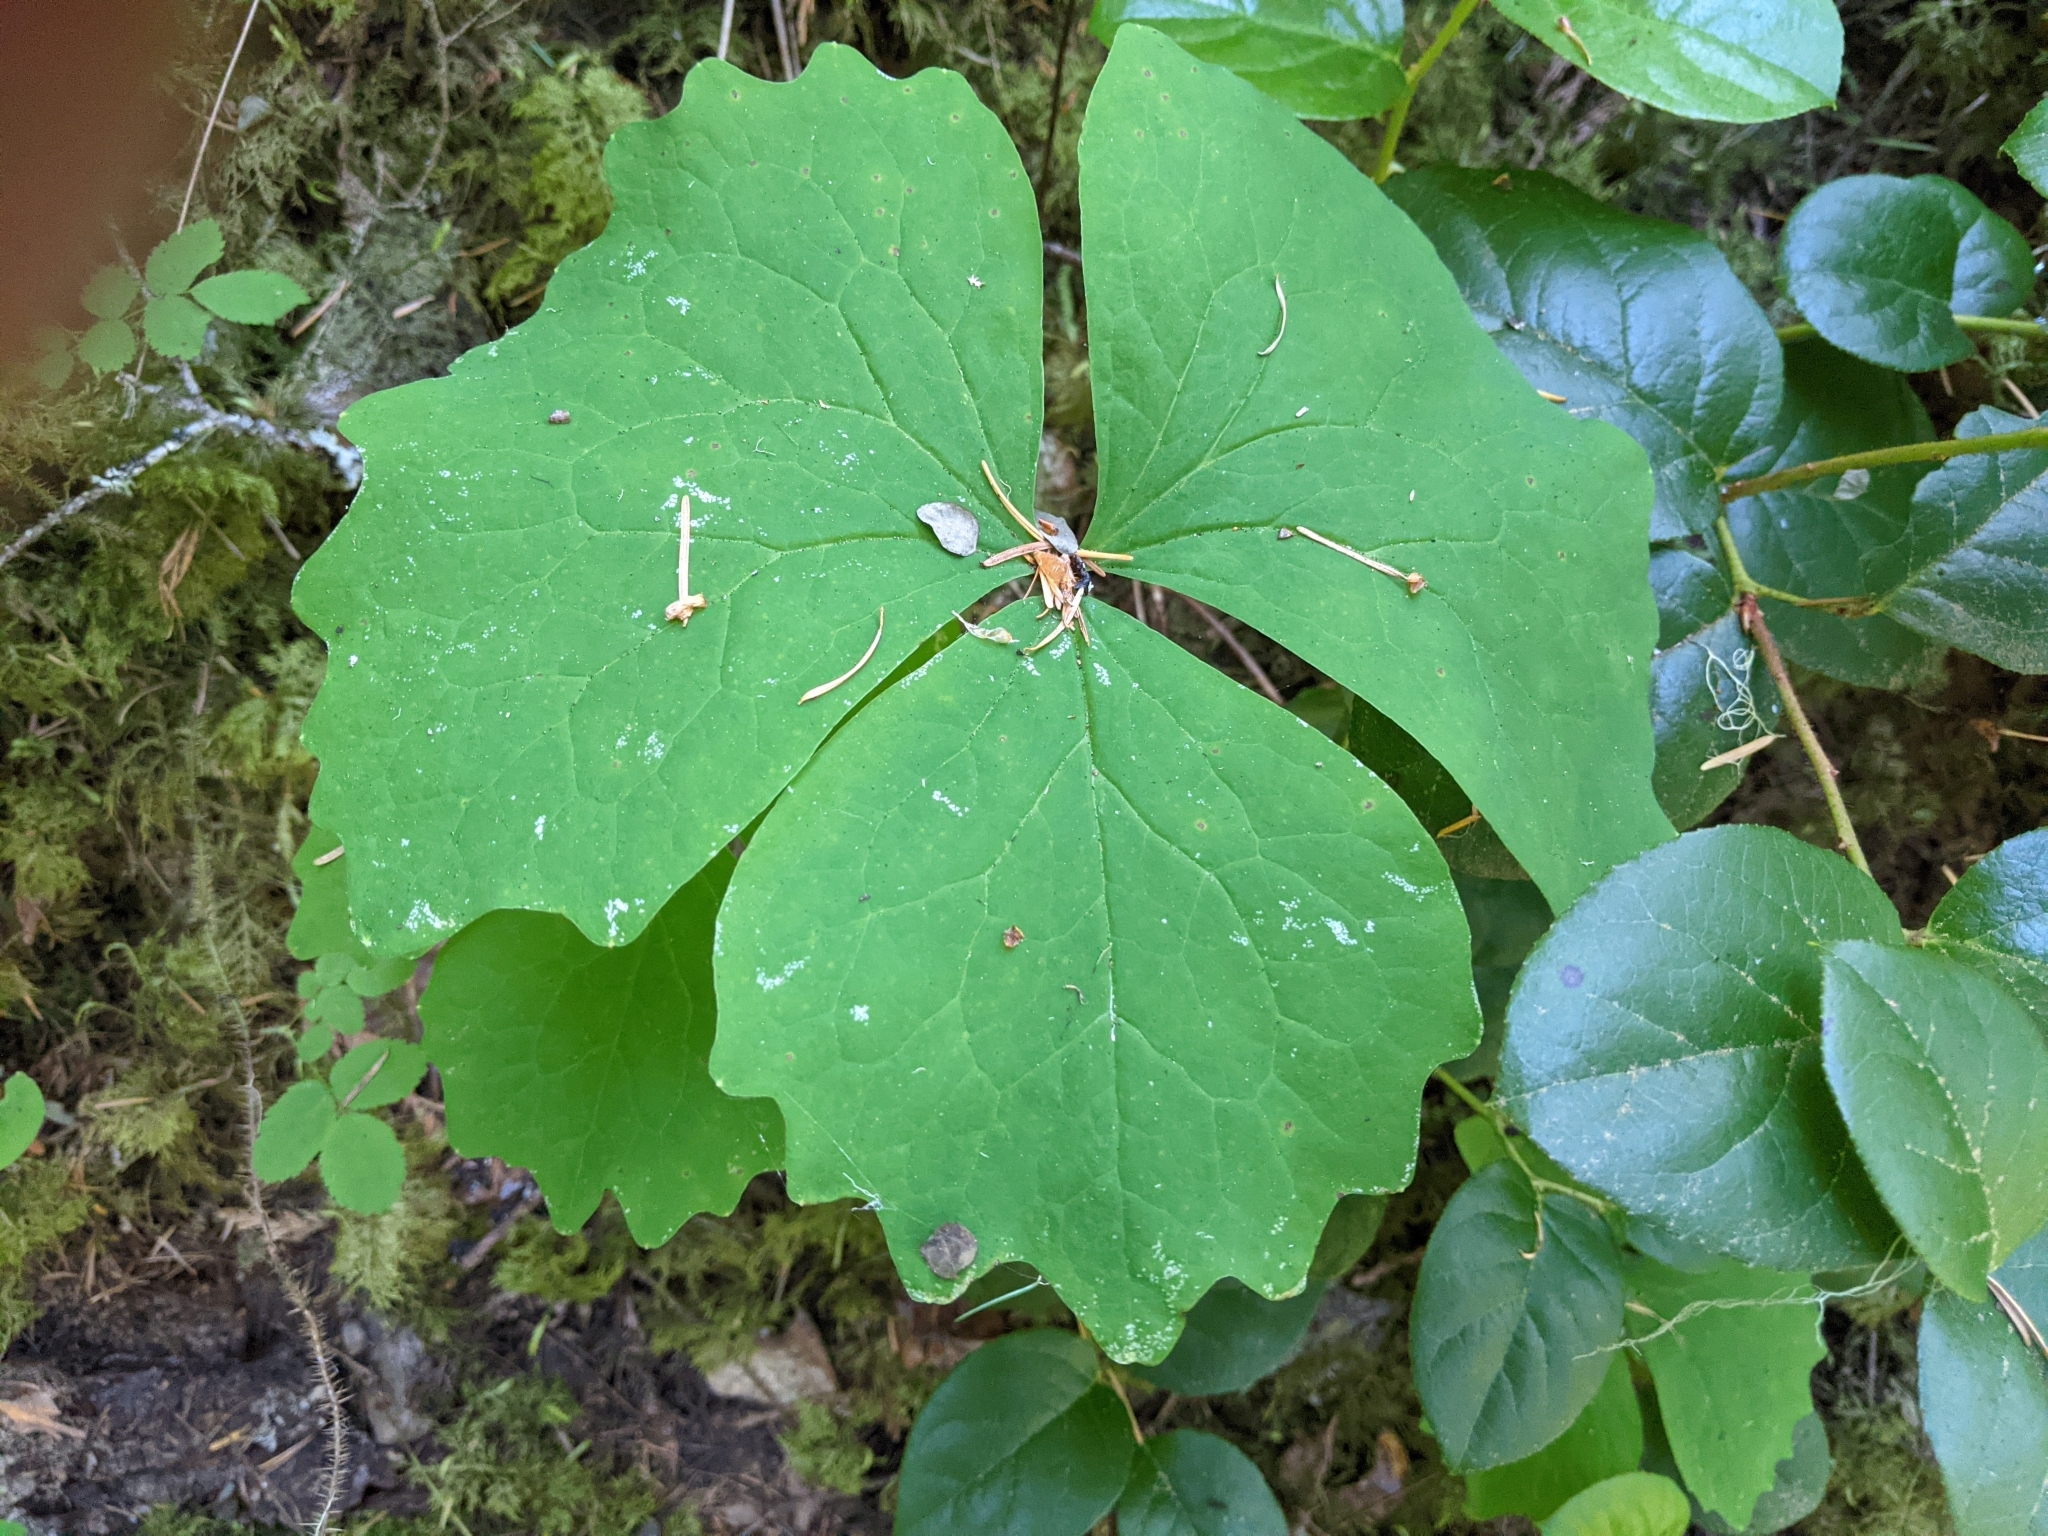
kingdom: Plantae
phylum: Tracheophyta
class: Magnoliopsida
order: Ranunculales
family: Berberidaceae
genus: Achlys
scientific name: Achlys californica
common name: California deer-foot
